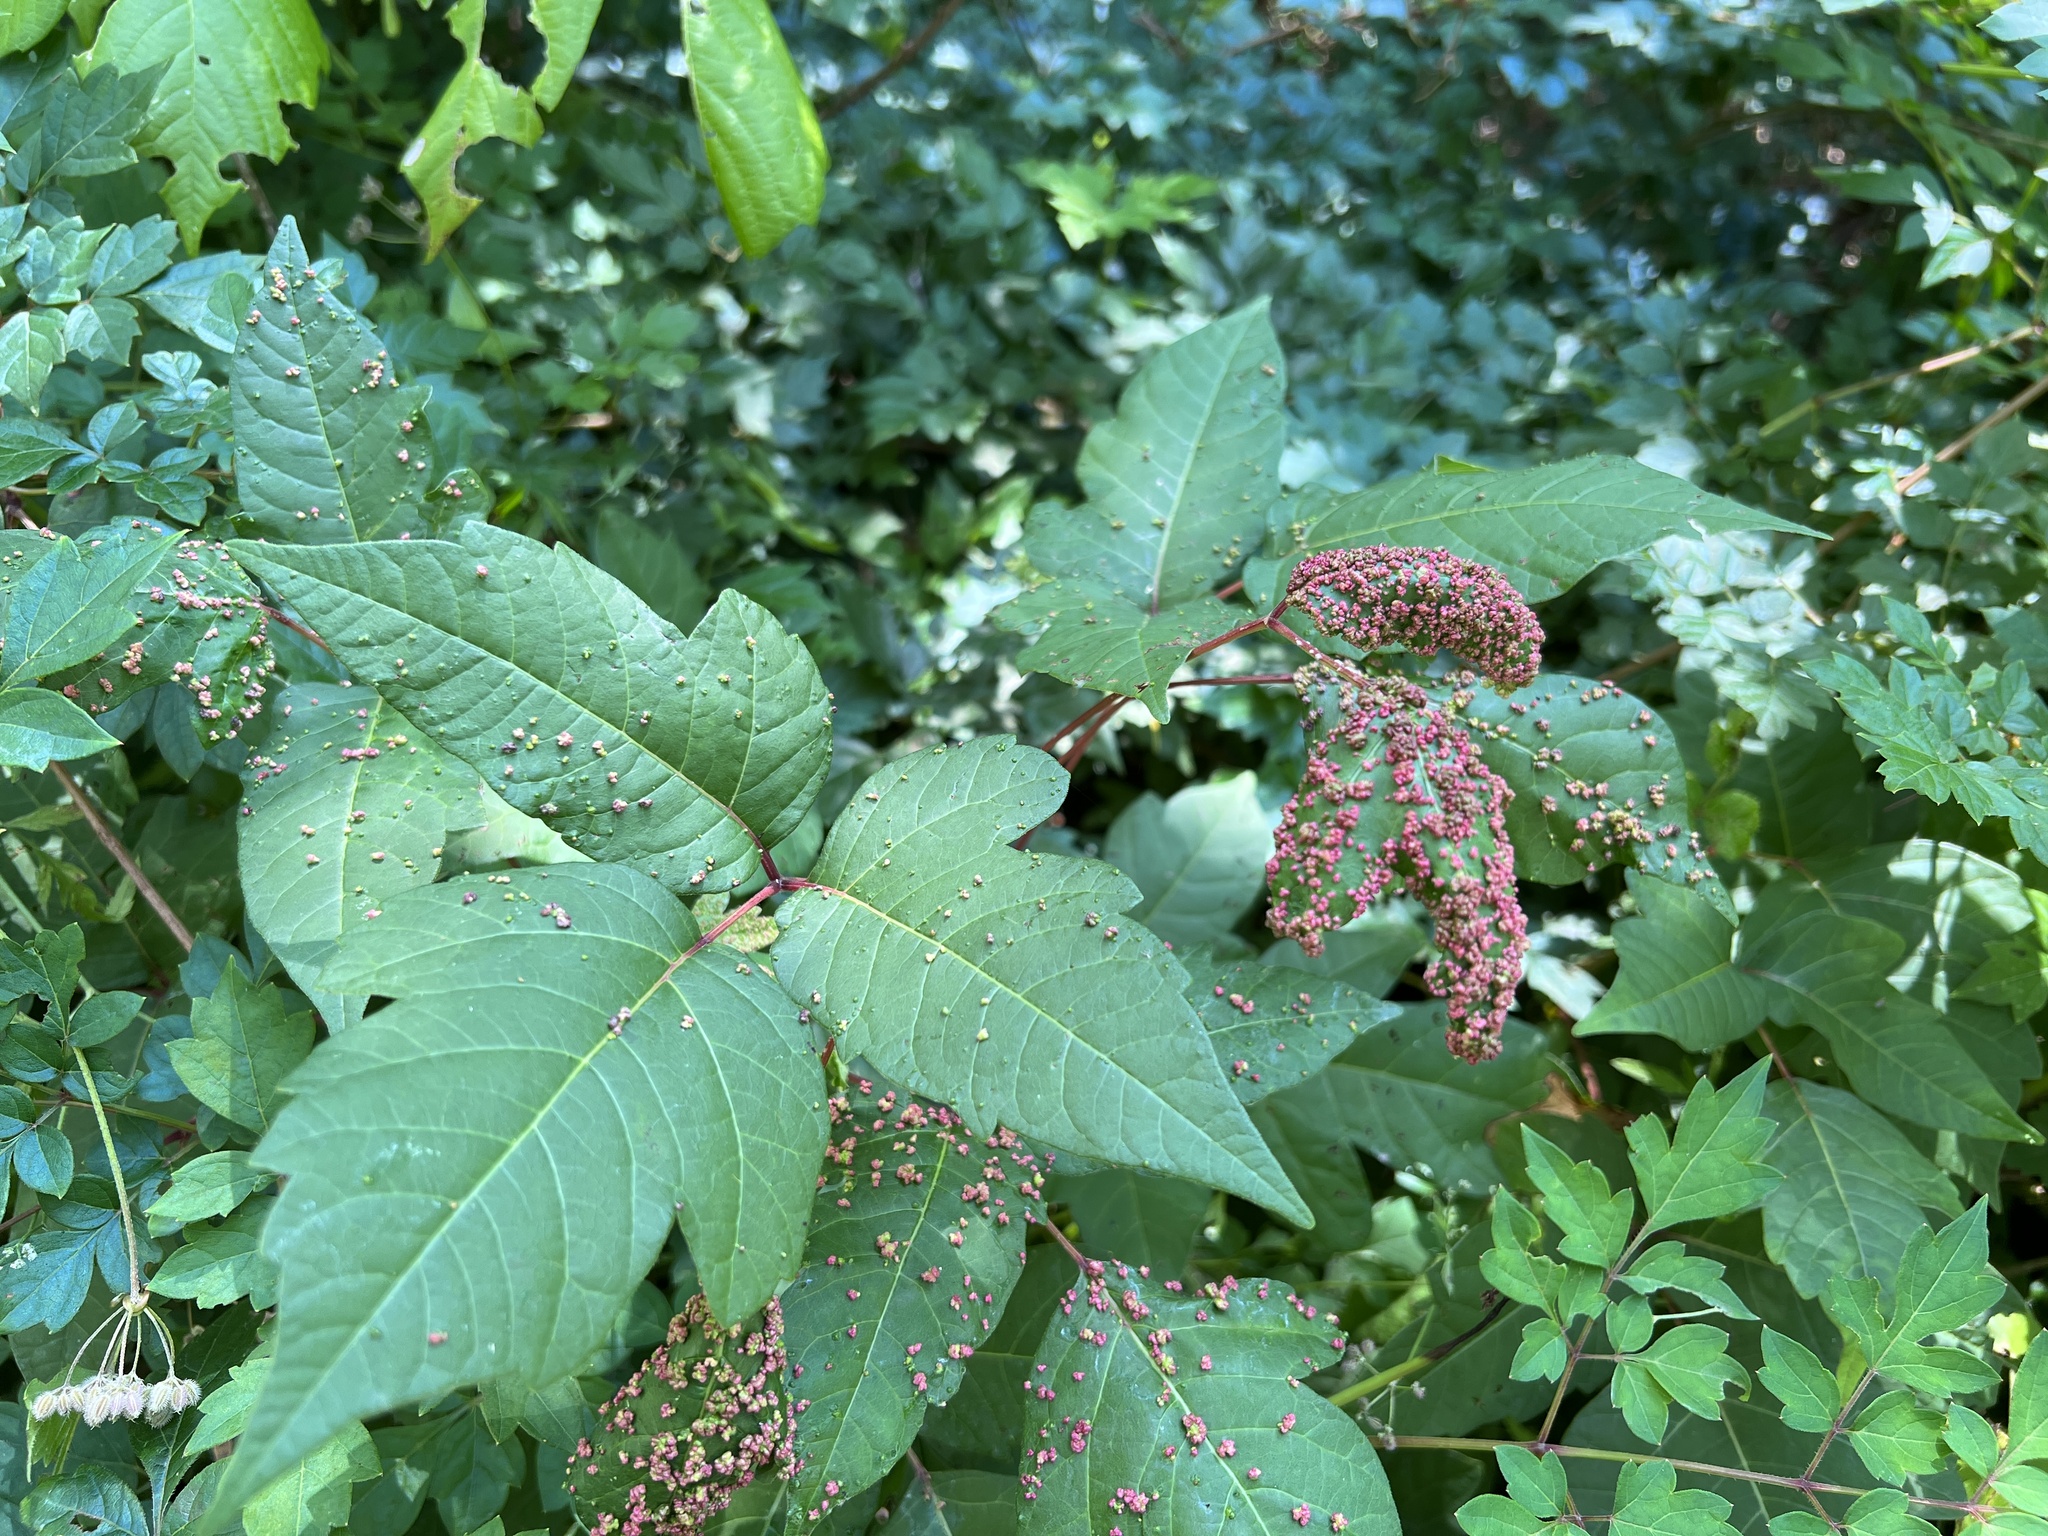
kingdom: Animalia
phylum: Arthropoda
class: Arachnida
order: Trombidiformes
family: Eriophyidae
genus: Aculops
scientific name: Aculops
